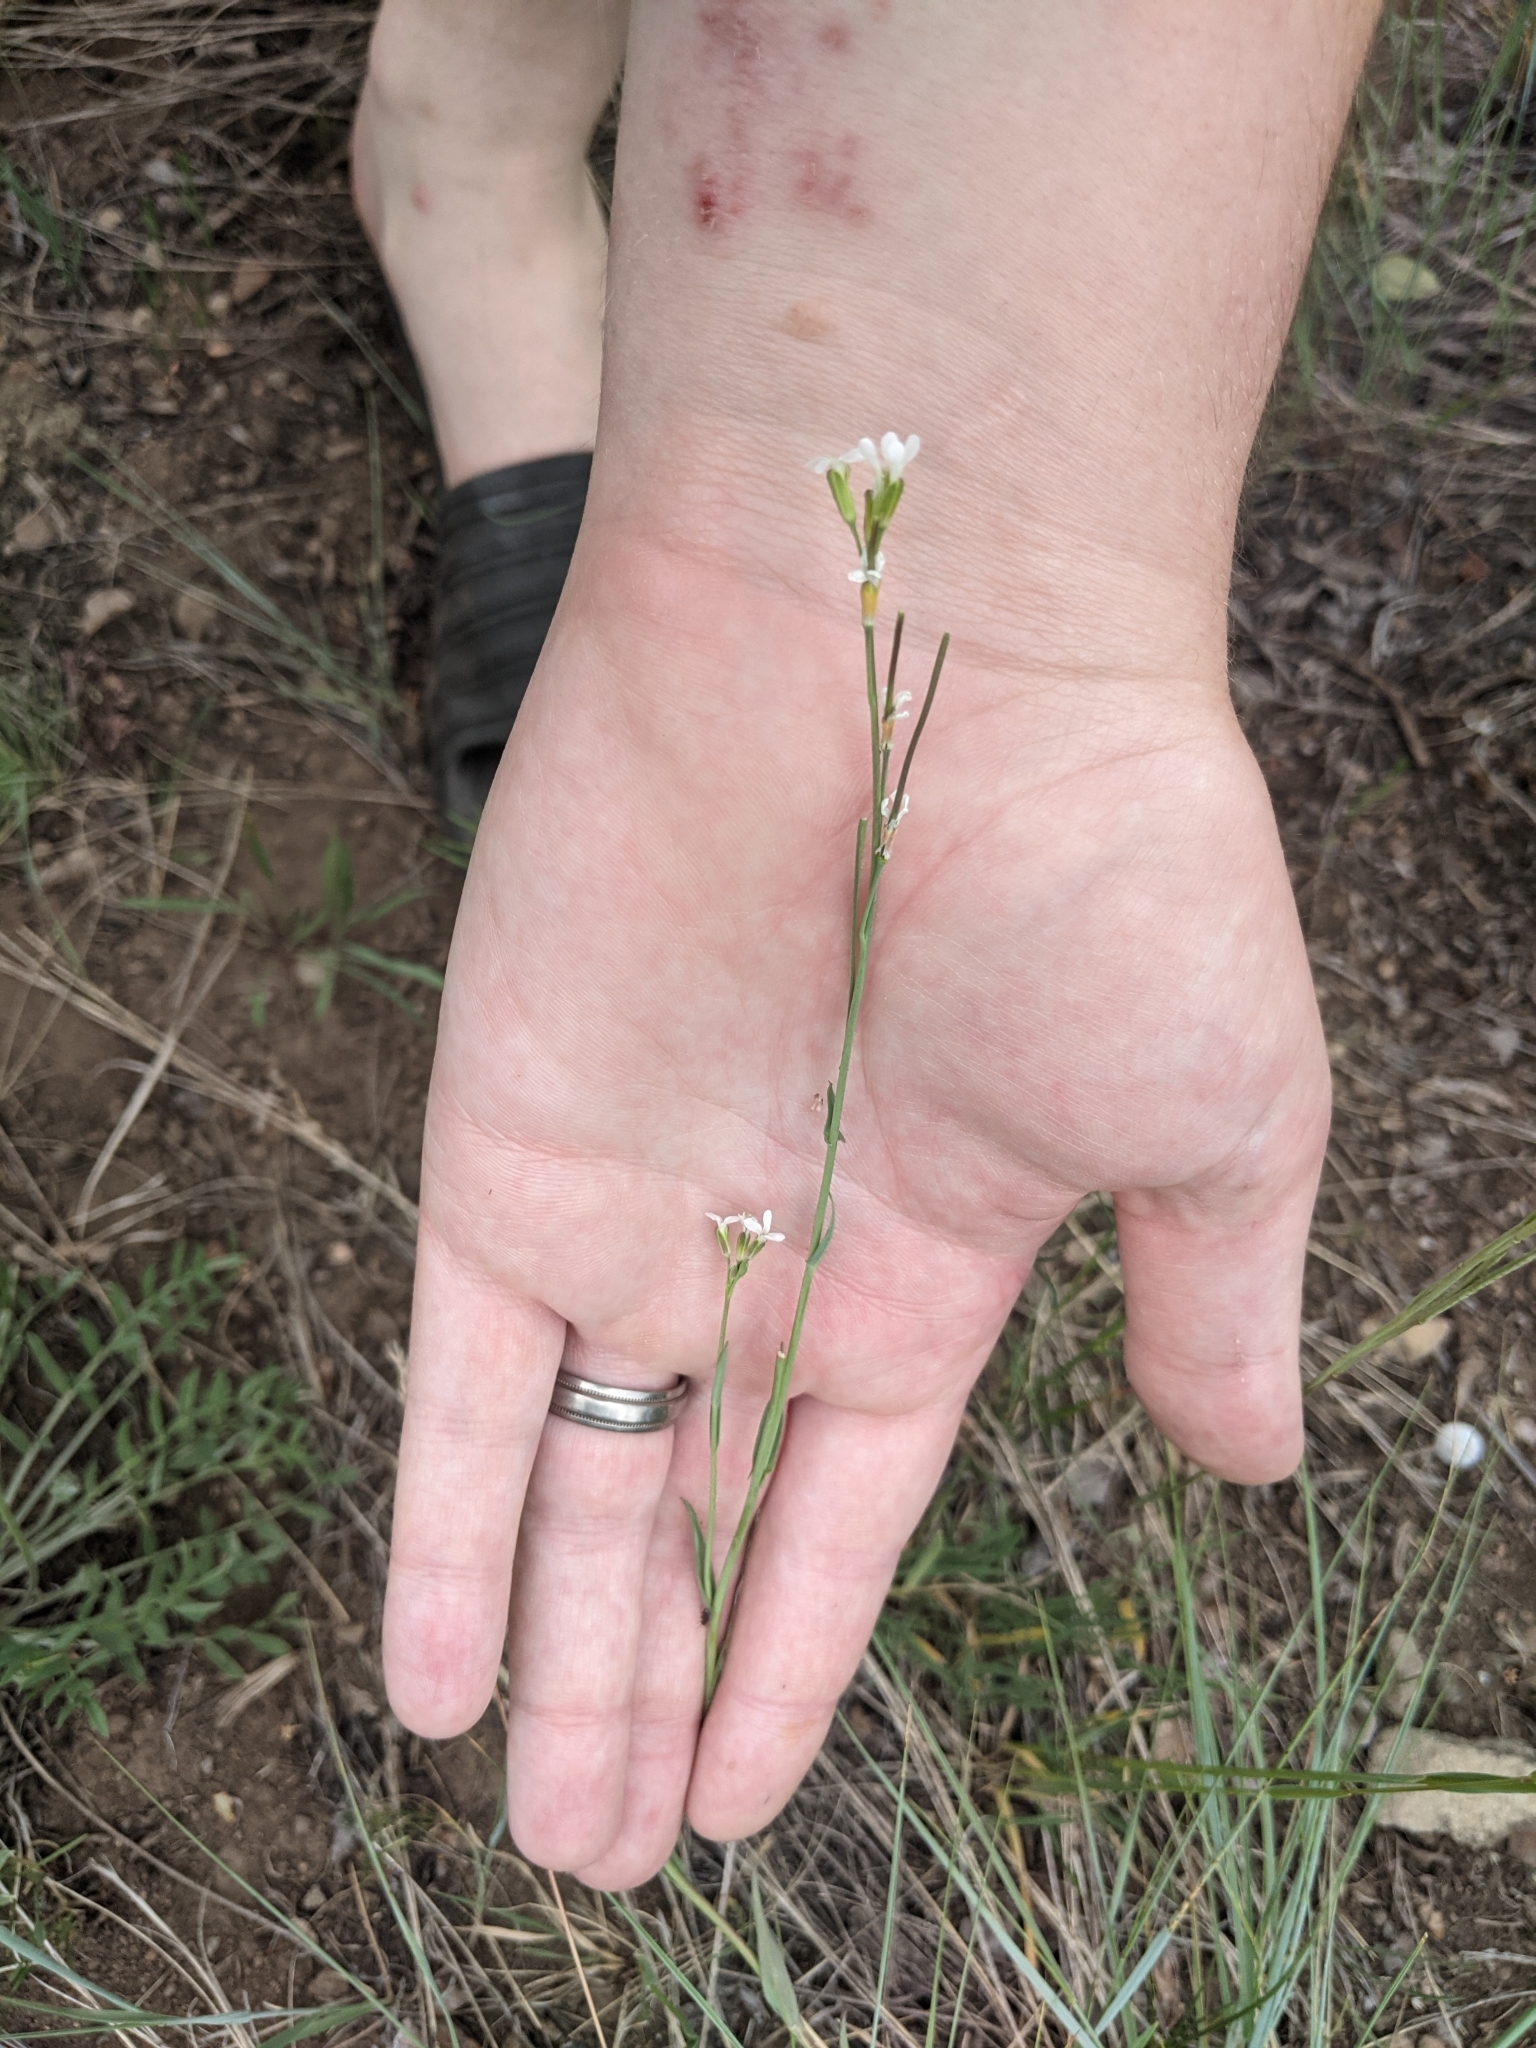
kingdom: Plantae
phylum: Tracheophyta
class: Magnoliopsida
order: Brassicales
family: Brassicaceae
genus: Boechera
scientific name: Boechera stricta
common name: Canadian rockcress
